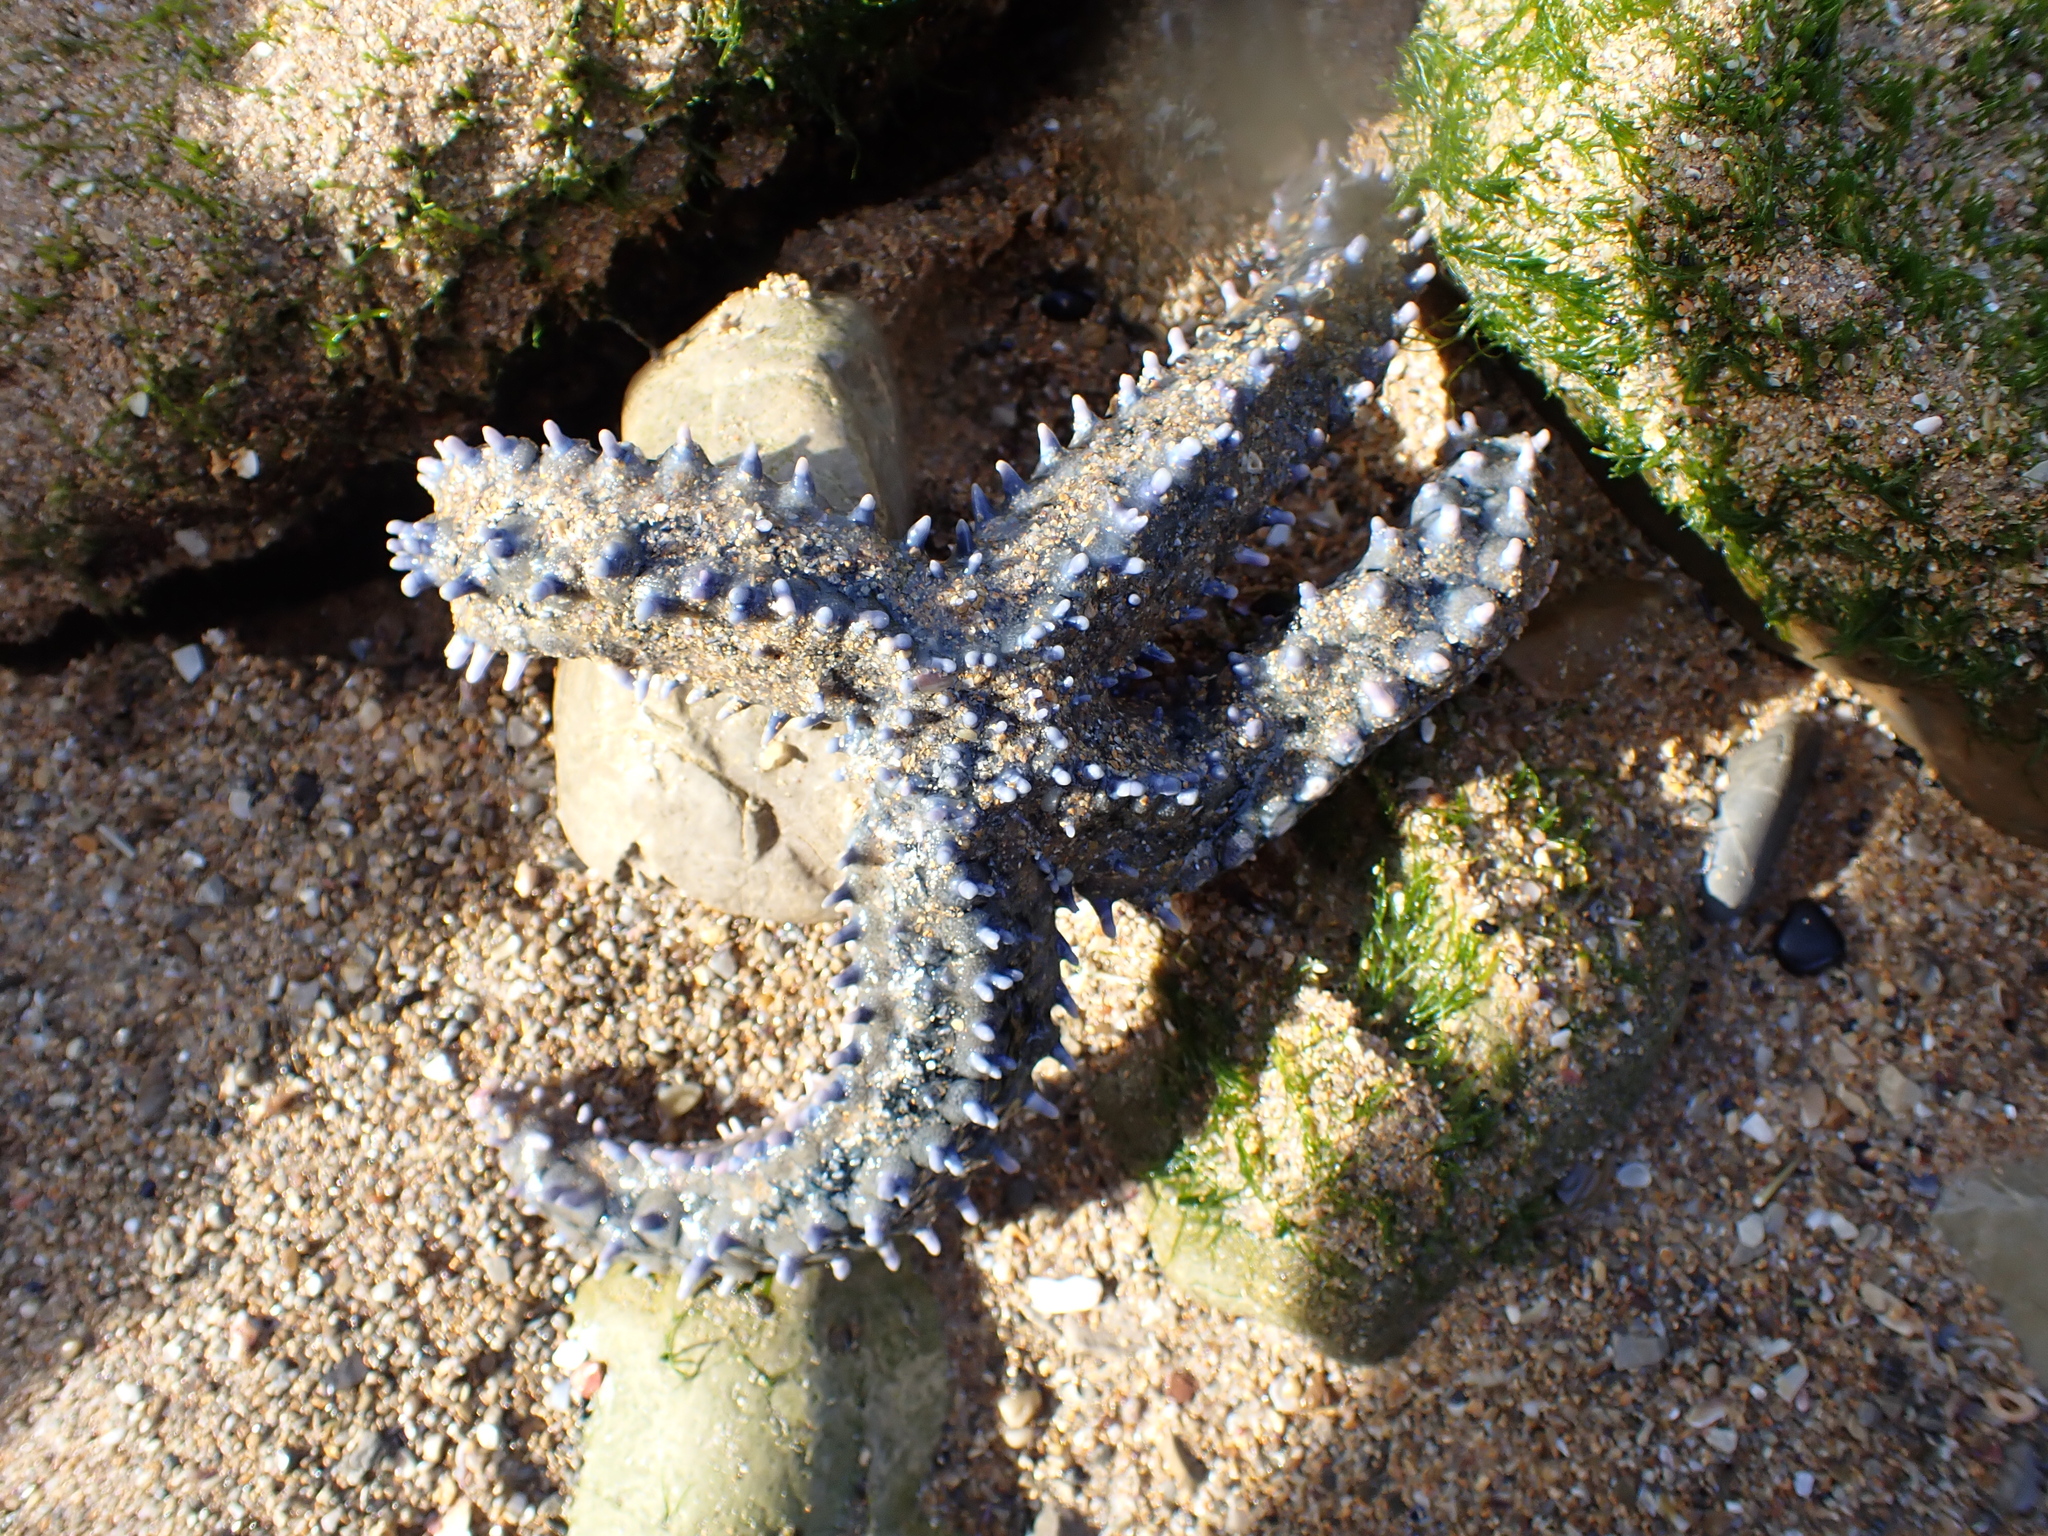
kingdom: Animalia
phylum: Echinodermata
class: Asteroidea
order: Forcipulatida
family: Asteriidae
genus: Marthasterias
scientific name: Marthasterias glacialis
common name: Spiny starfish
